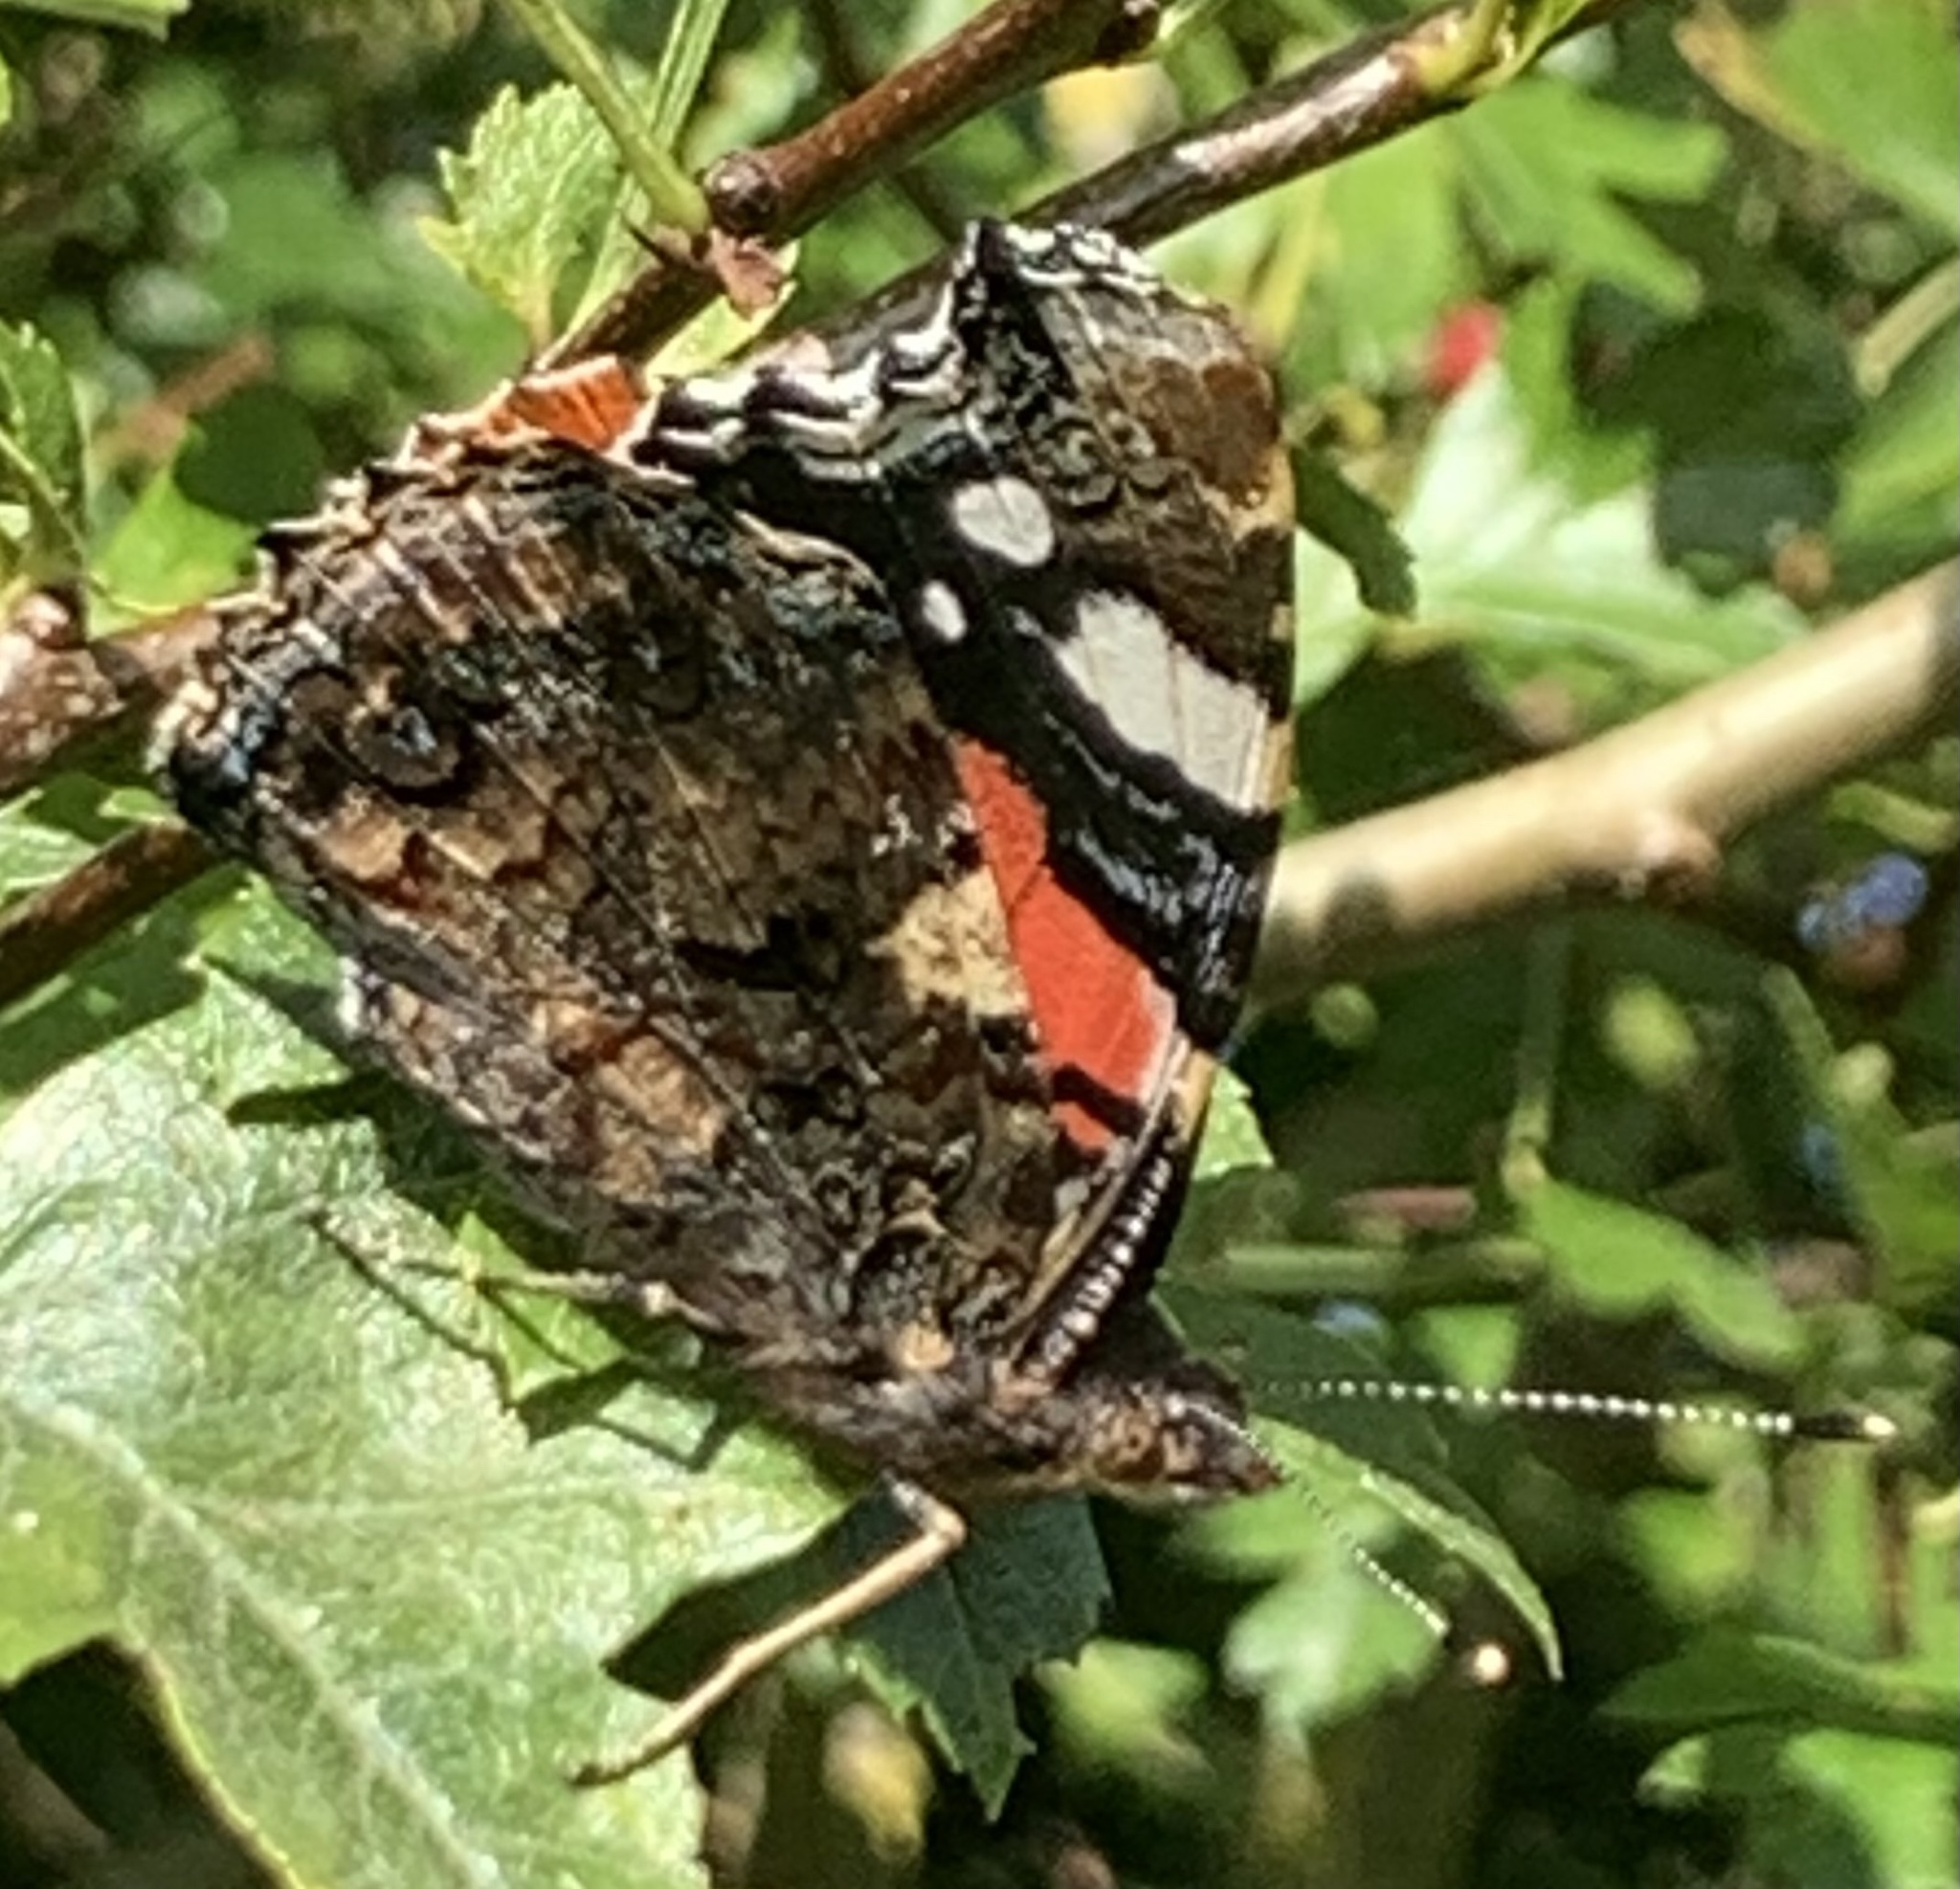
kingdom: Animalia
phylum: Arthropoda
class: Insecta
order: Lepidoptera
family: Nymphalidae
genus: Vanessa
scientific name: Vanessa atalanta
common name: Red admiral
